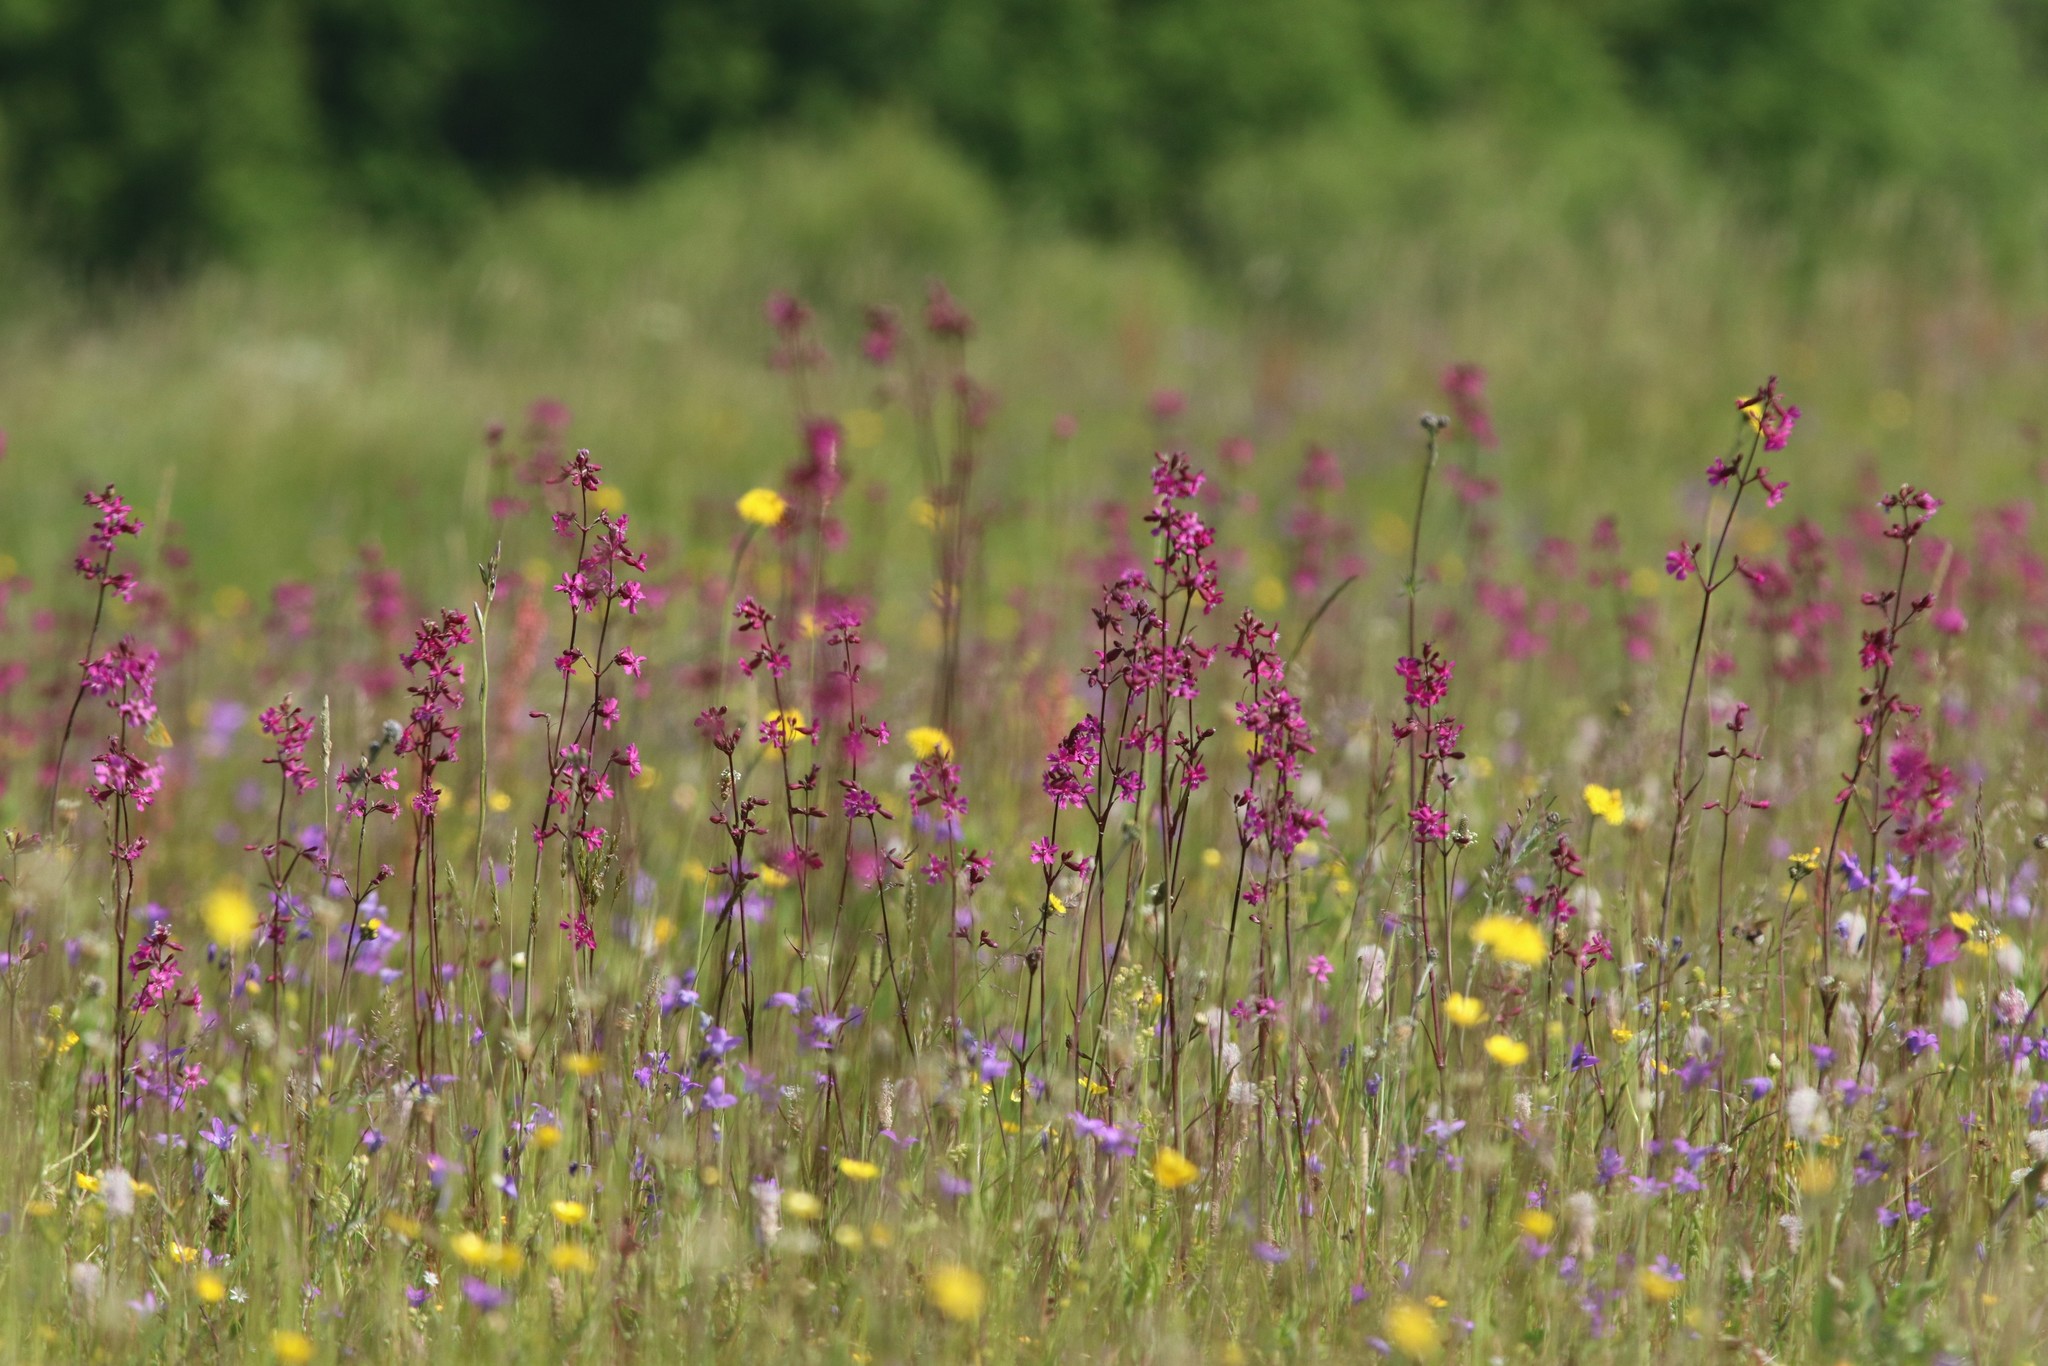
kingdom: Plantae
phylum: Tracheophyta
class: Magnoliopsida
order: Caryophyllales
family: Caryophyllaceae
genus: Viscaria
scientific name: Viscaria vulgaris
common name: Clammy campion
